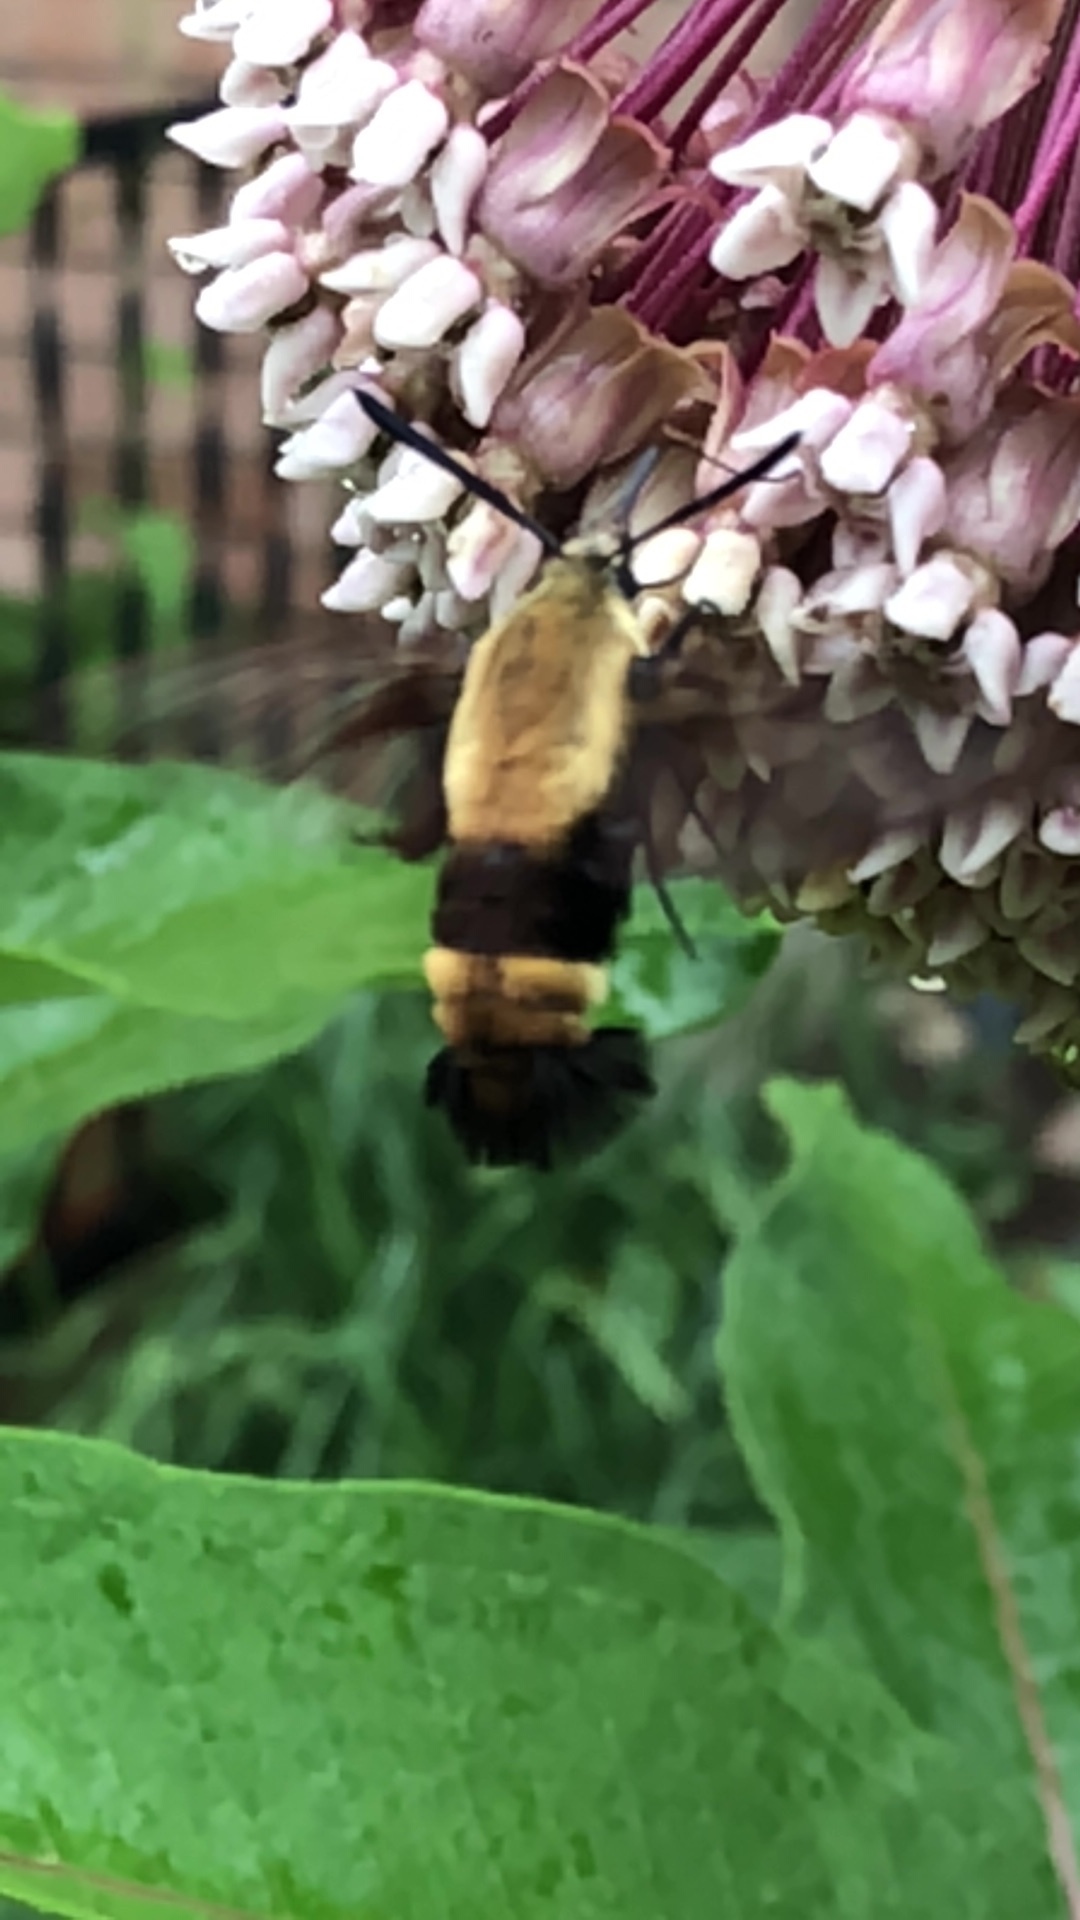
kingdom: Animalia
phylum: Arthropoda
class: Insecta
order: Lepidoptera
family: Sphingidae
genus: Hemaris
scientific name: Hemaris diffinis
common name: Bumblebee moth
